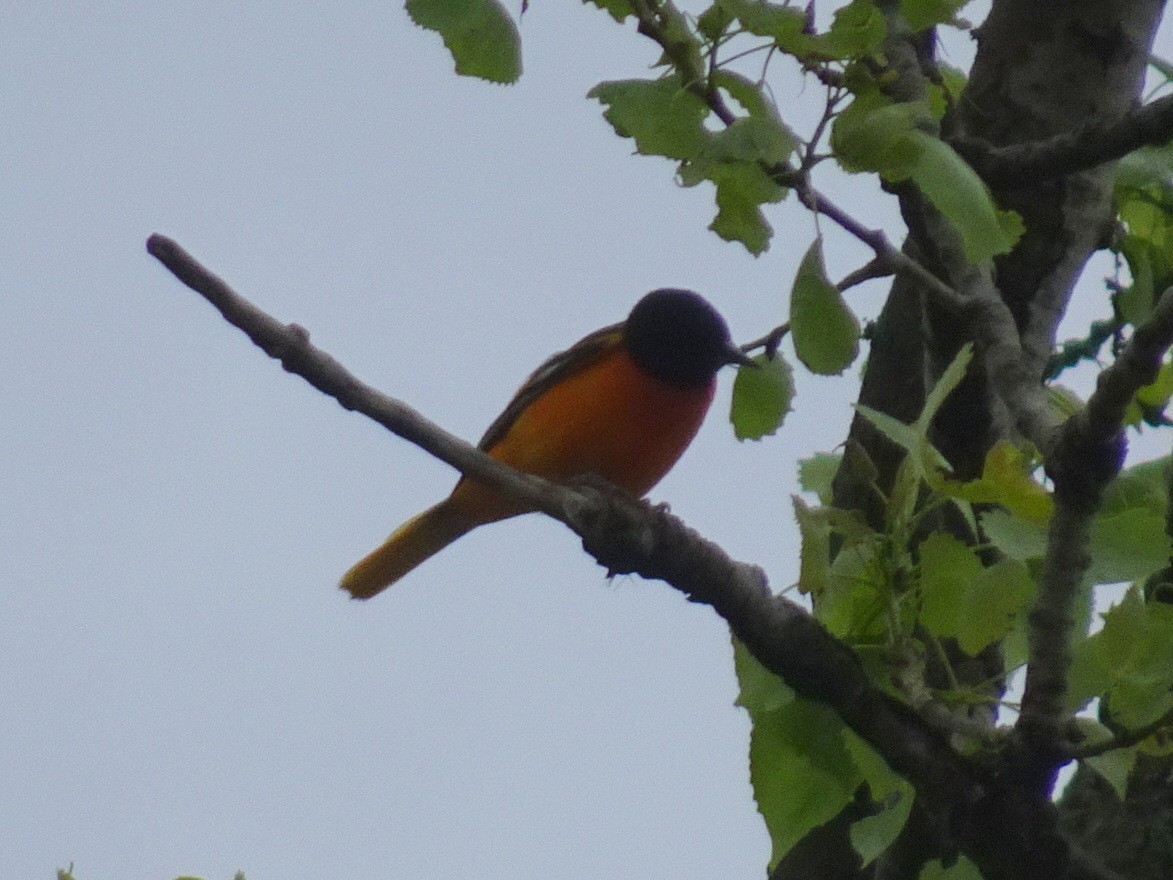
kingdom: Animalia
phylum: Chordata
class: Aves
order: Passeriformes
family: Icteridae
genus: Icterus
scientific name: Icterus galbula
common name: Baltimore oriole
